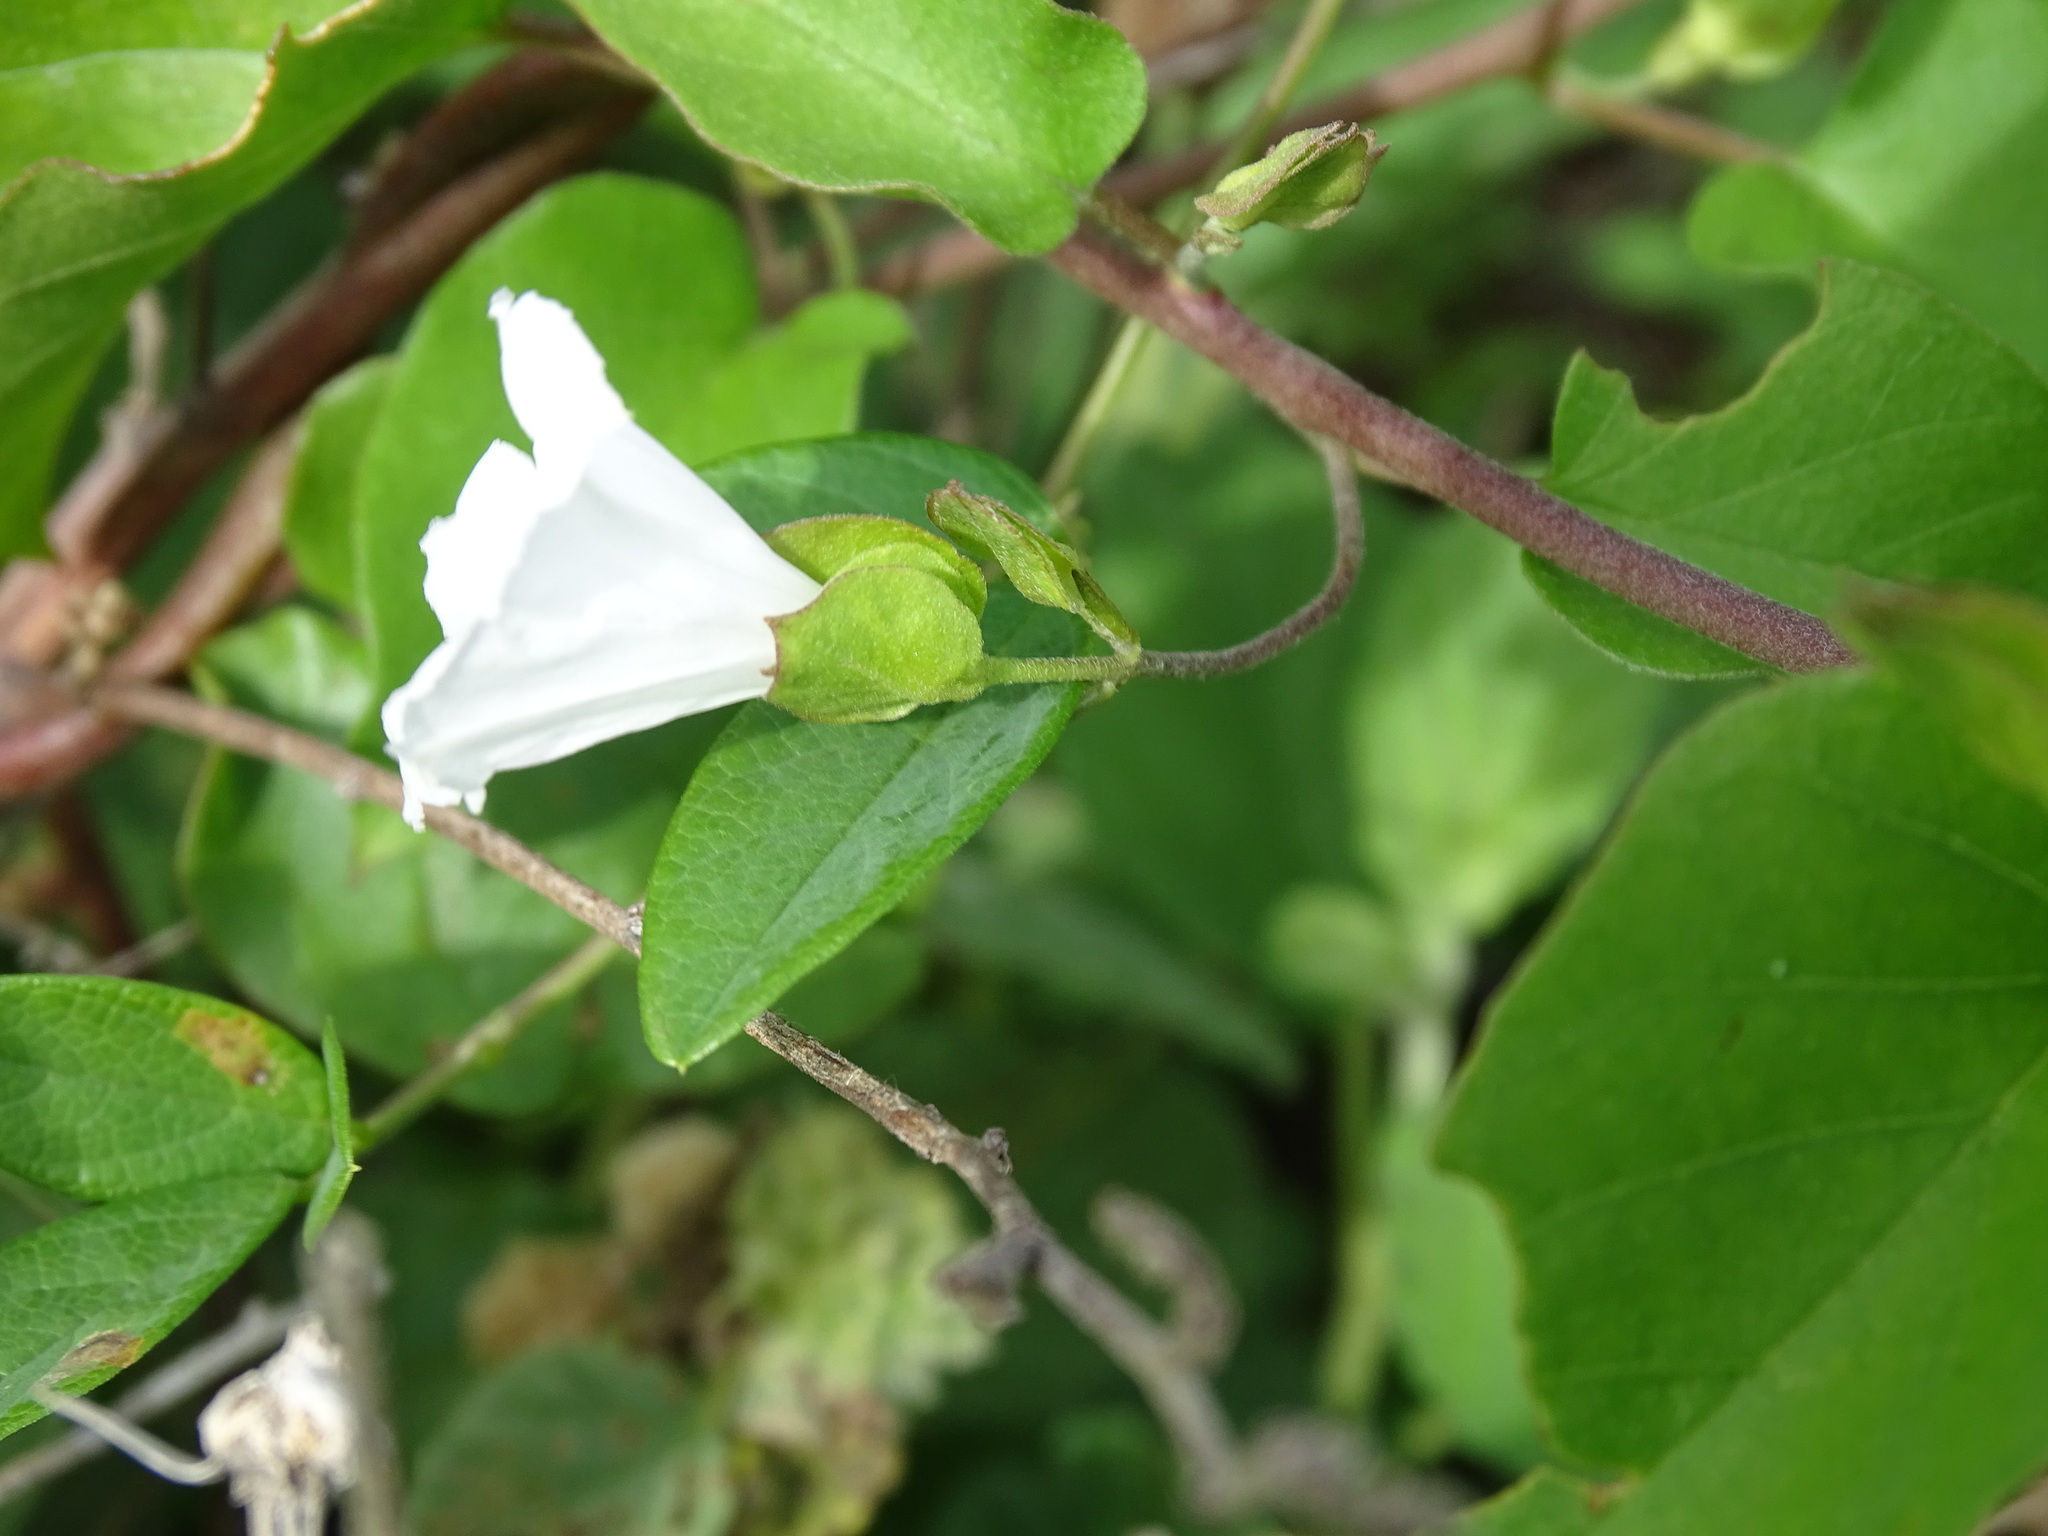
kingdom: Plantae
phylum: Tracheophyta
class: Magnoliopsida
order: Solanales
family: Convolvulaceae
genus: Aniseia
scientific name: Aniseia martinicensis
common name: Kulayadambu
